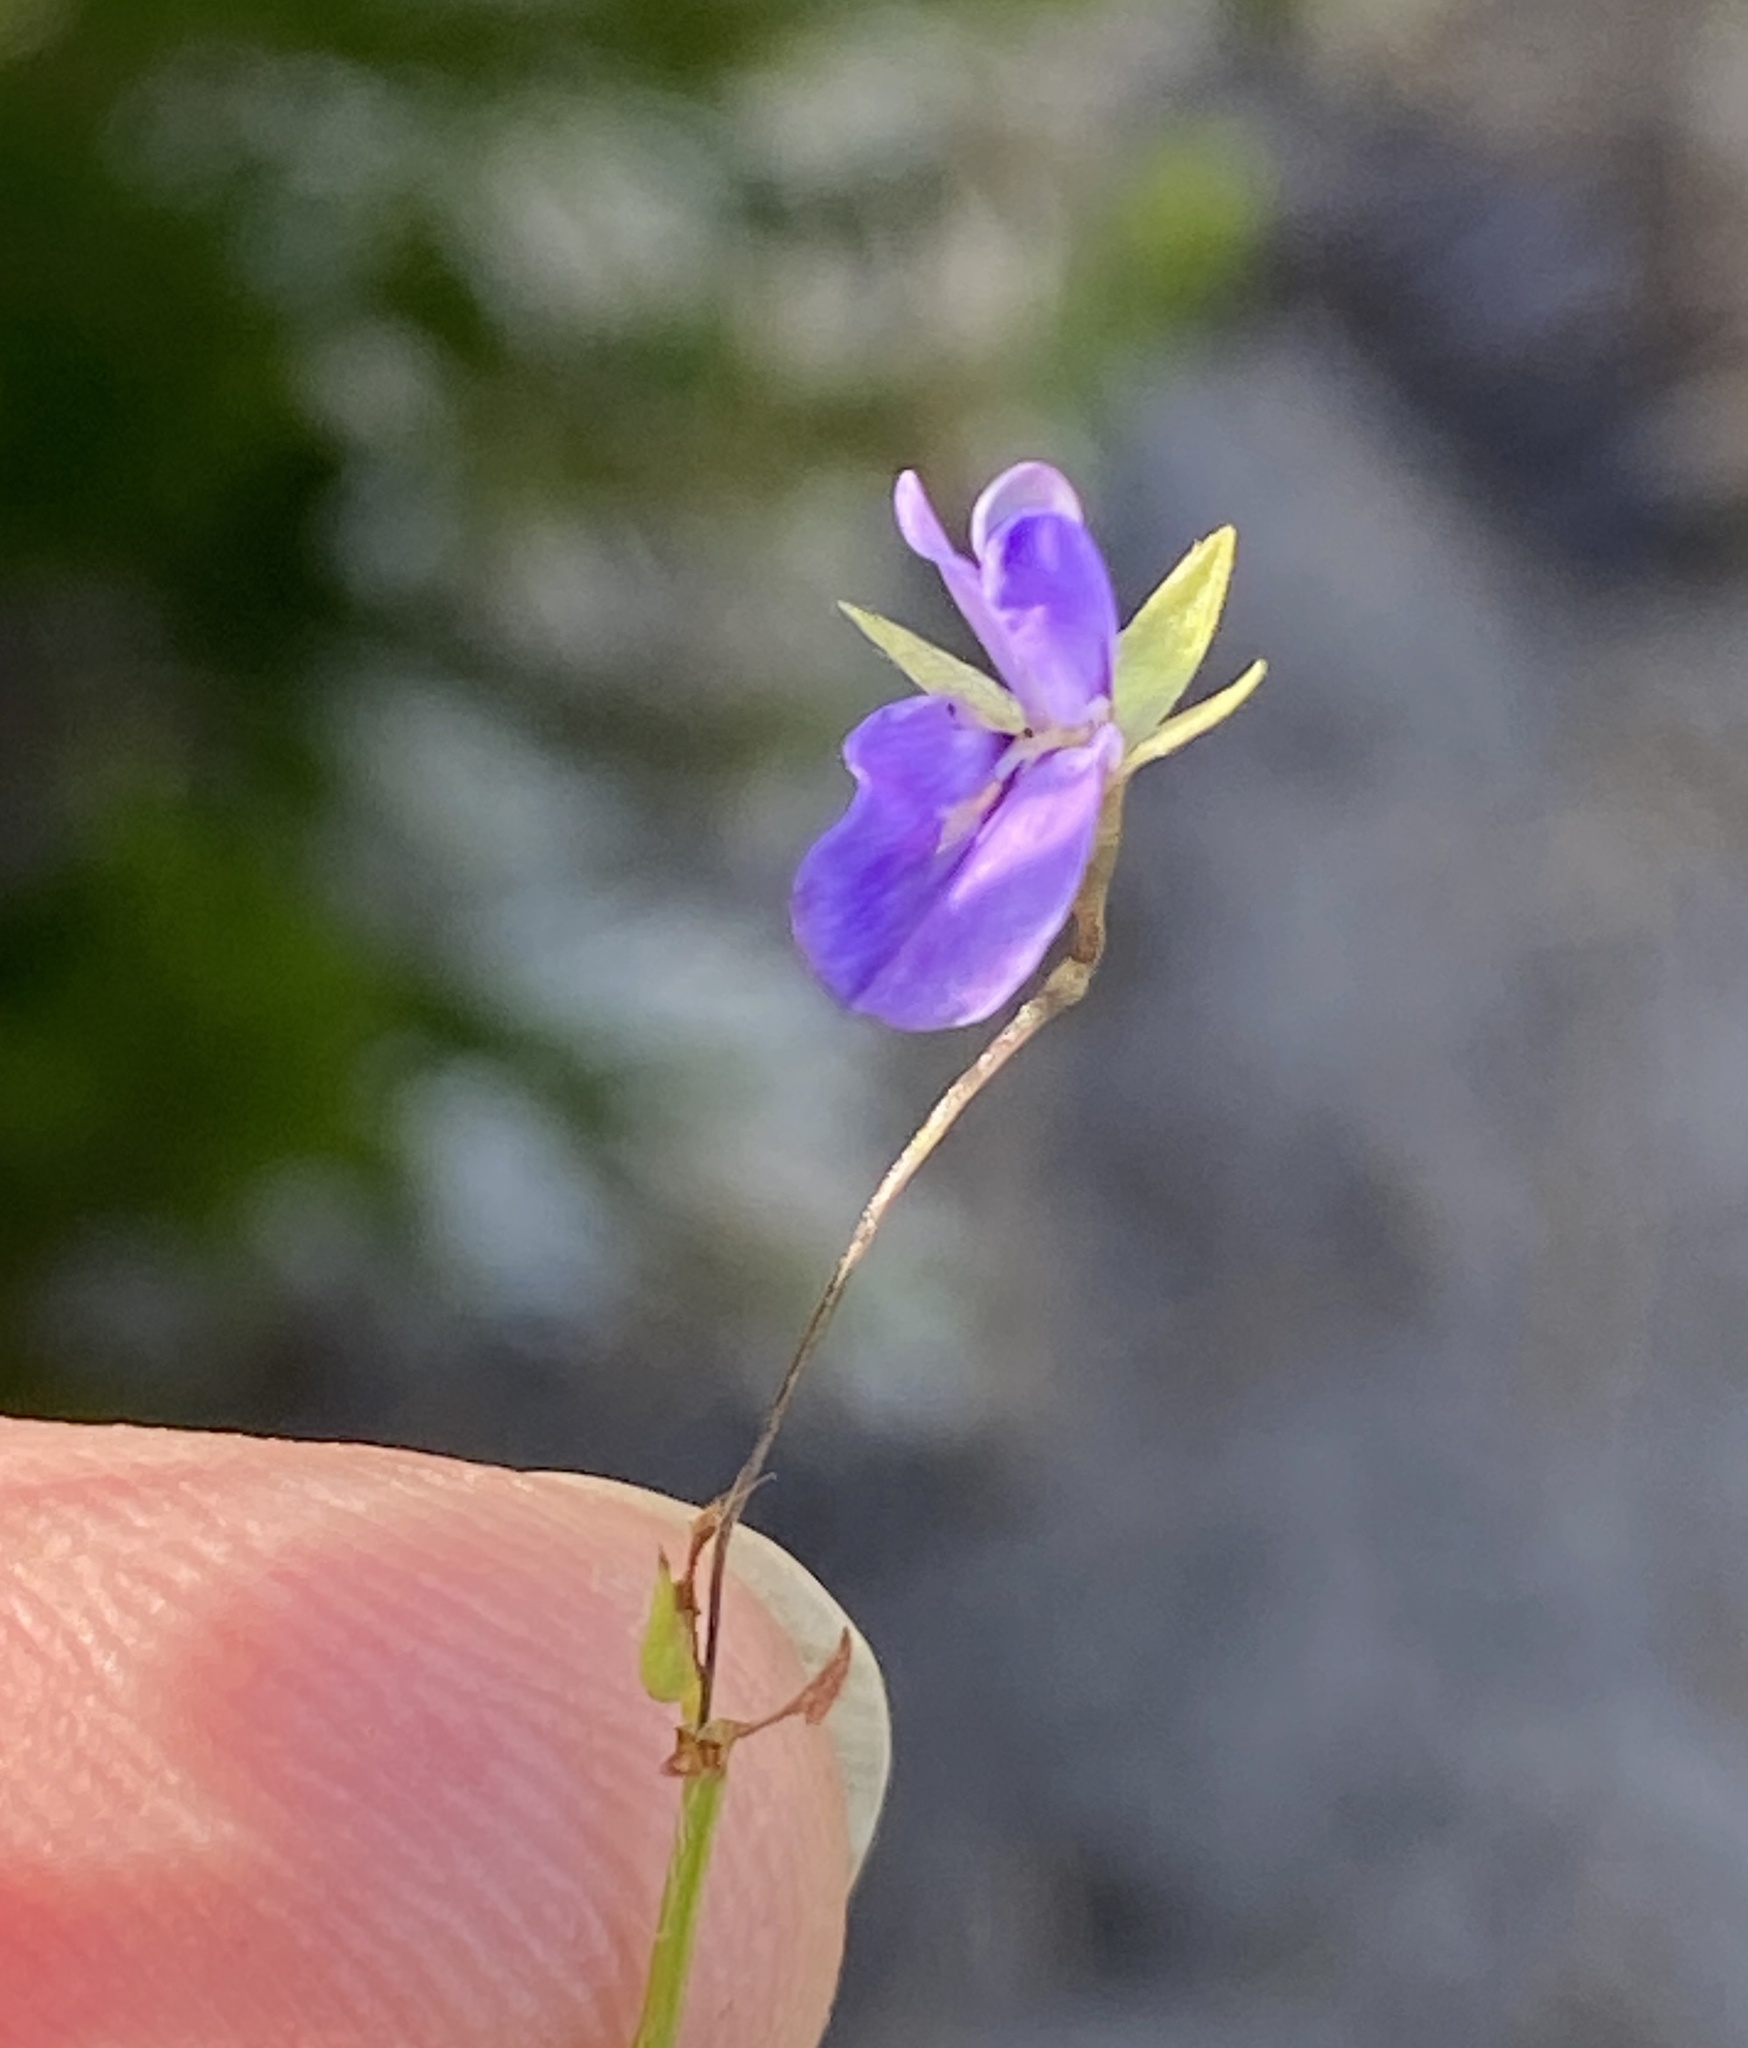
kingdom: Plantae
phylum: Tracheophyta
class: Magnoliopsida
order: Fabales
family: Fabaceae
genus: Psoralea
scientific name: Psoralea asarina
